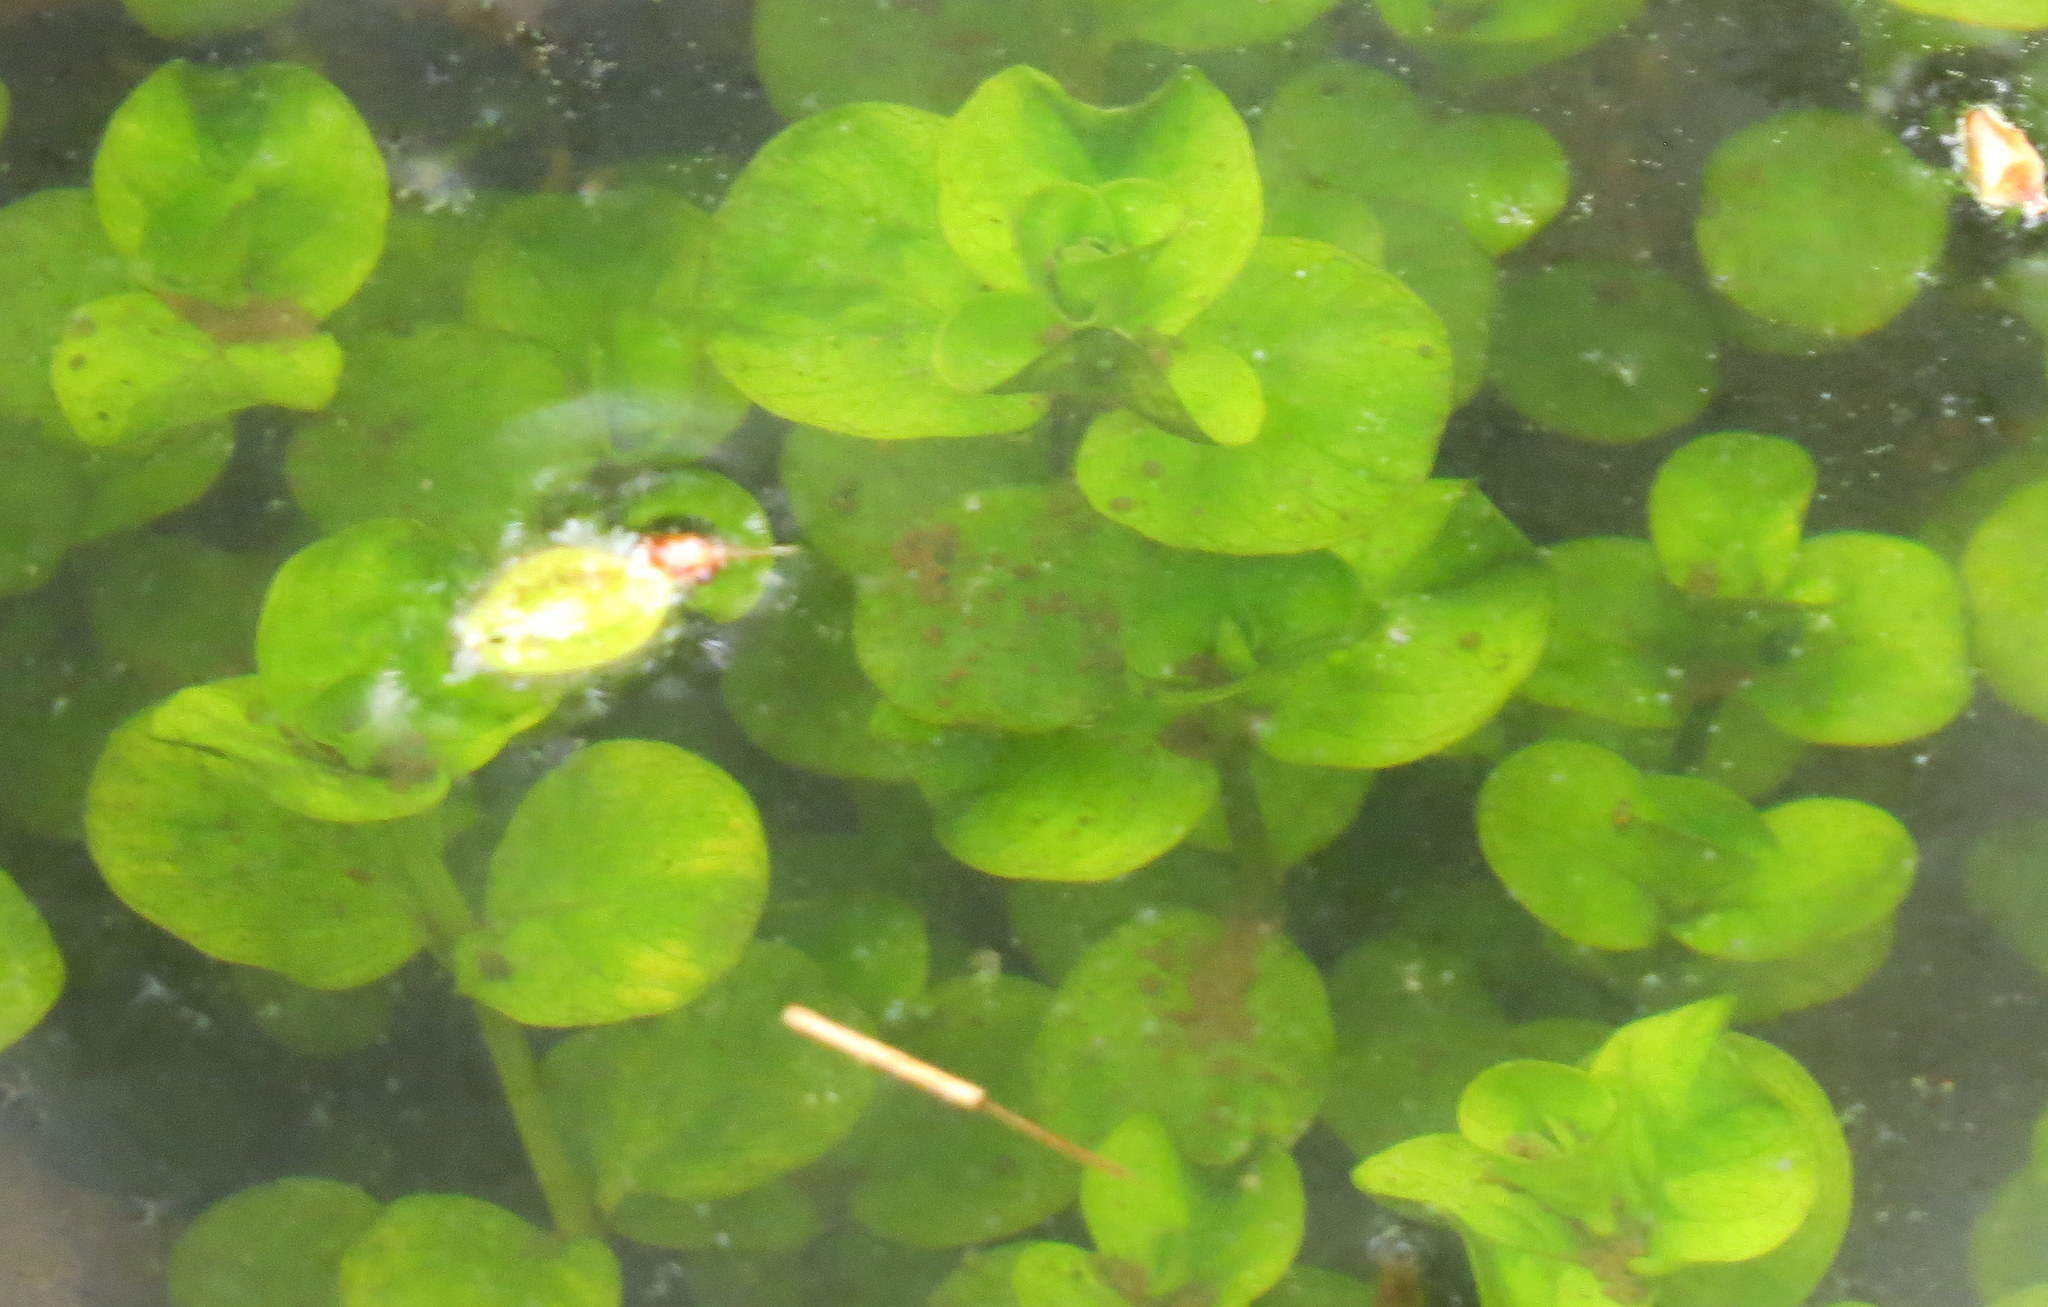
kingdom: Plantae
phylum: Tracheophyta
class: Magnoliopsida
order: Ericales
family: Primulaceae
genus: Lysimachia
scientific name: Lysimachia nummularia
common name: Moneywort
